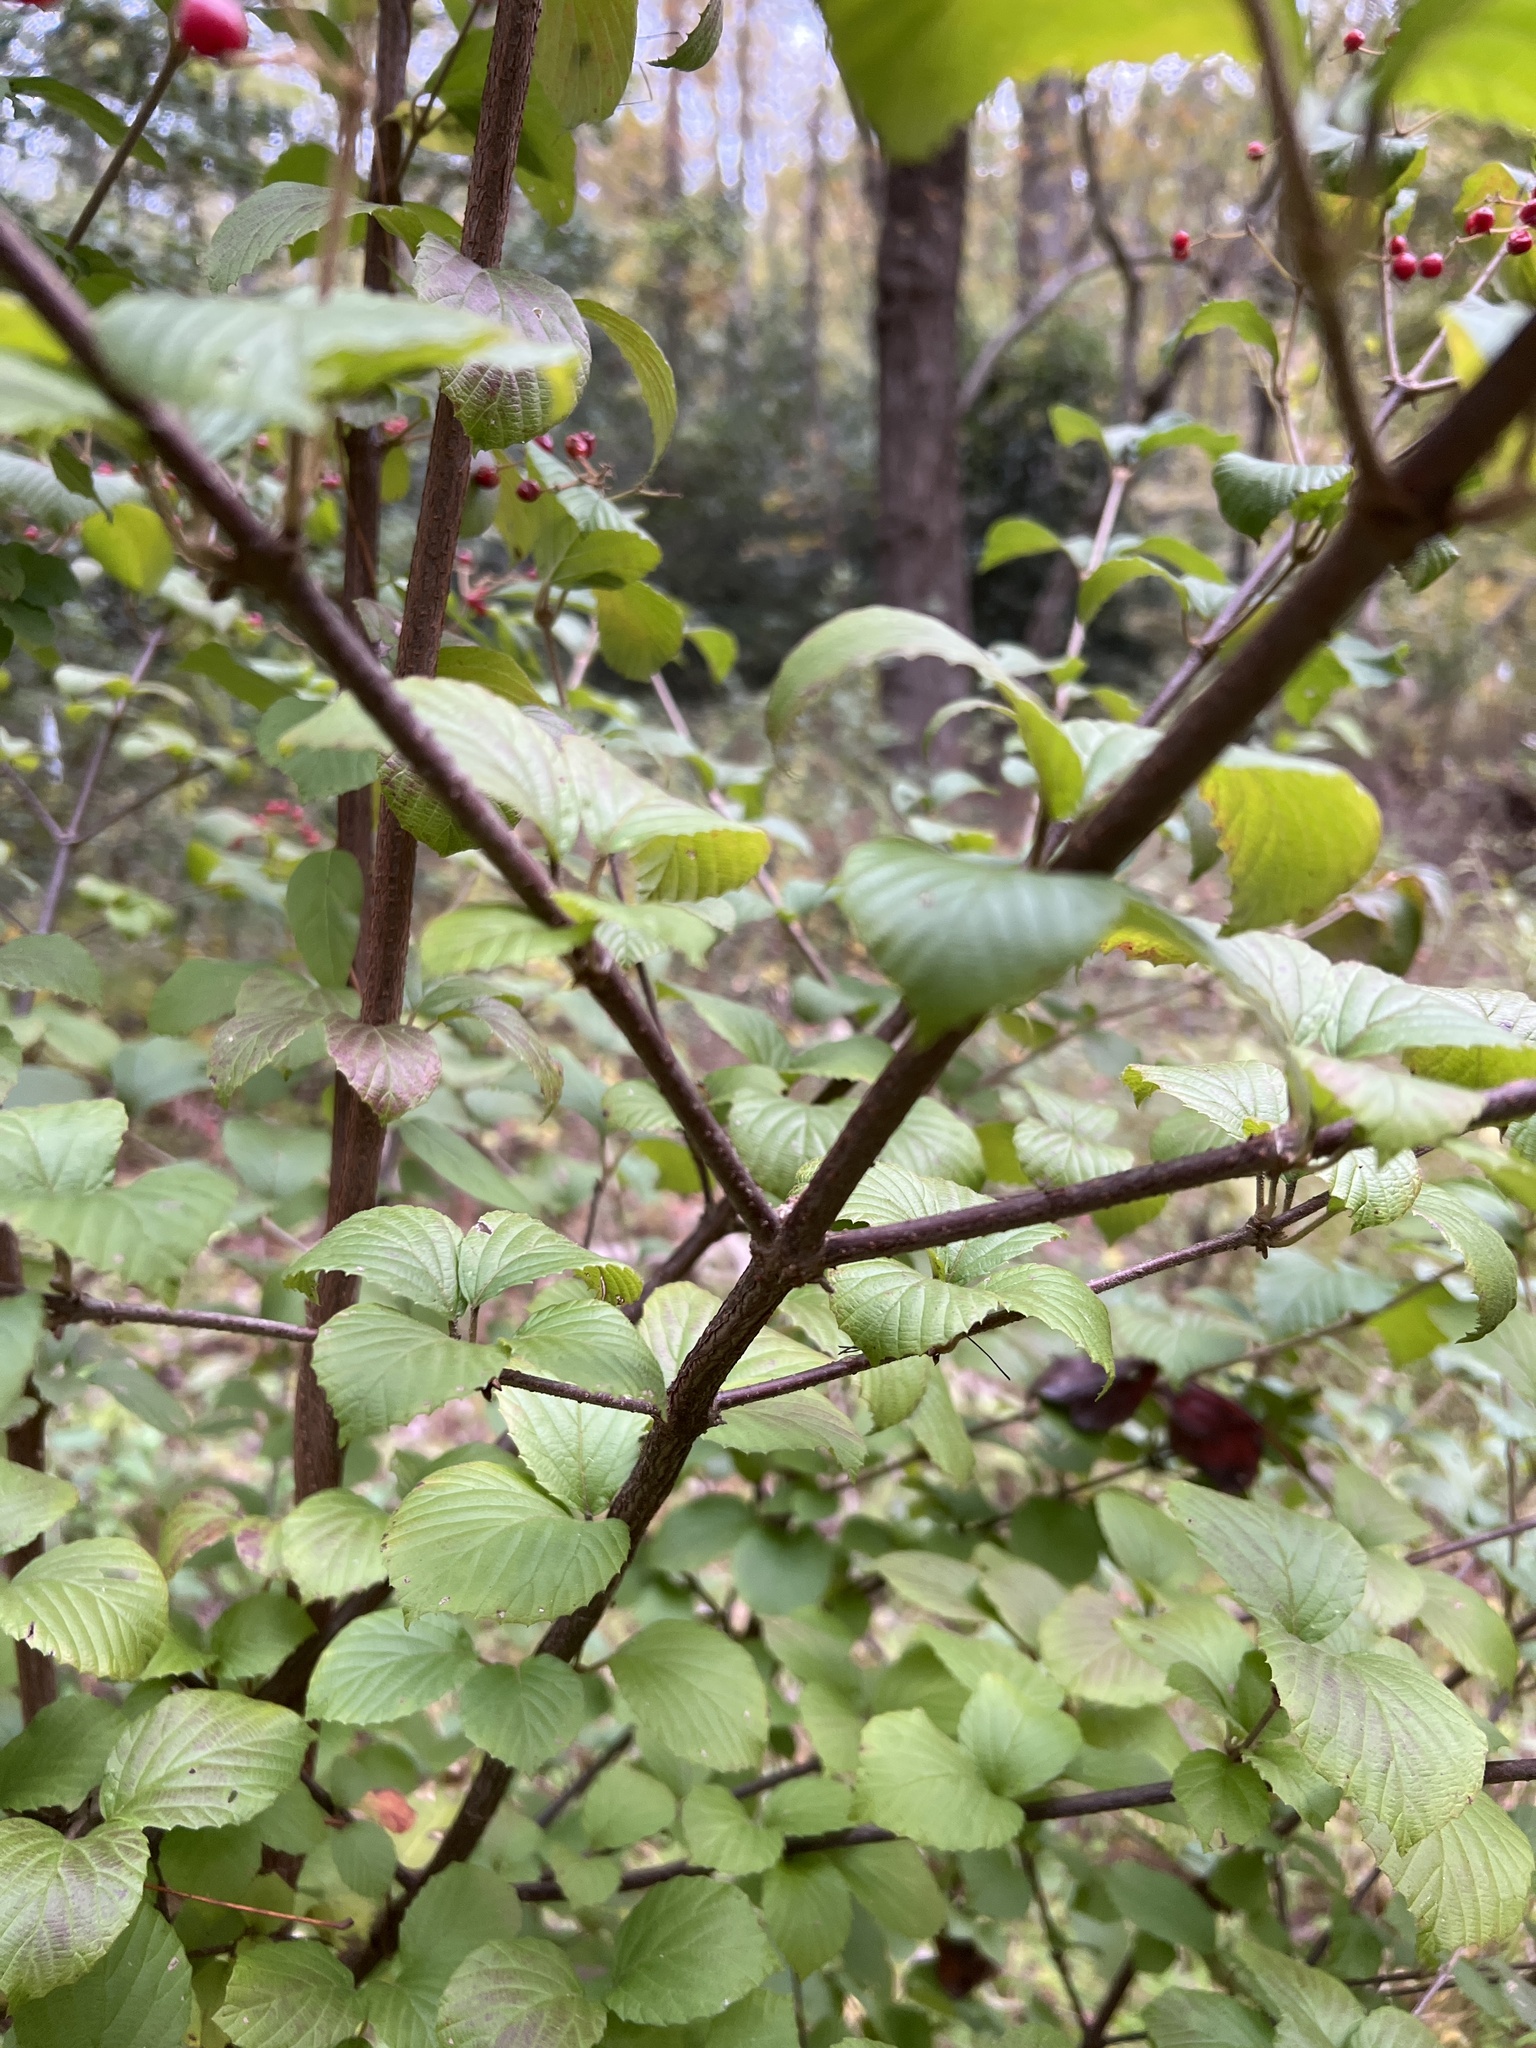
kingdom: Plantae
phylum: Tracheophyta
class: Magnoliopsida
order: Dipsacales
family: Viburnaceae
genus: Viburnum
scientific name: Viburnum dilatatum
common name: Linden arrowwood
